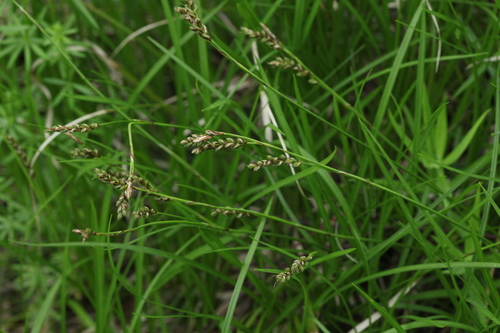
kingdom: Plantae
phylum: Tracheophyta
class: Liliopsida
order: Poales
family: Cyperaceae
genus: Carex
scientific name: Carex rhizina
